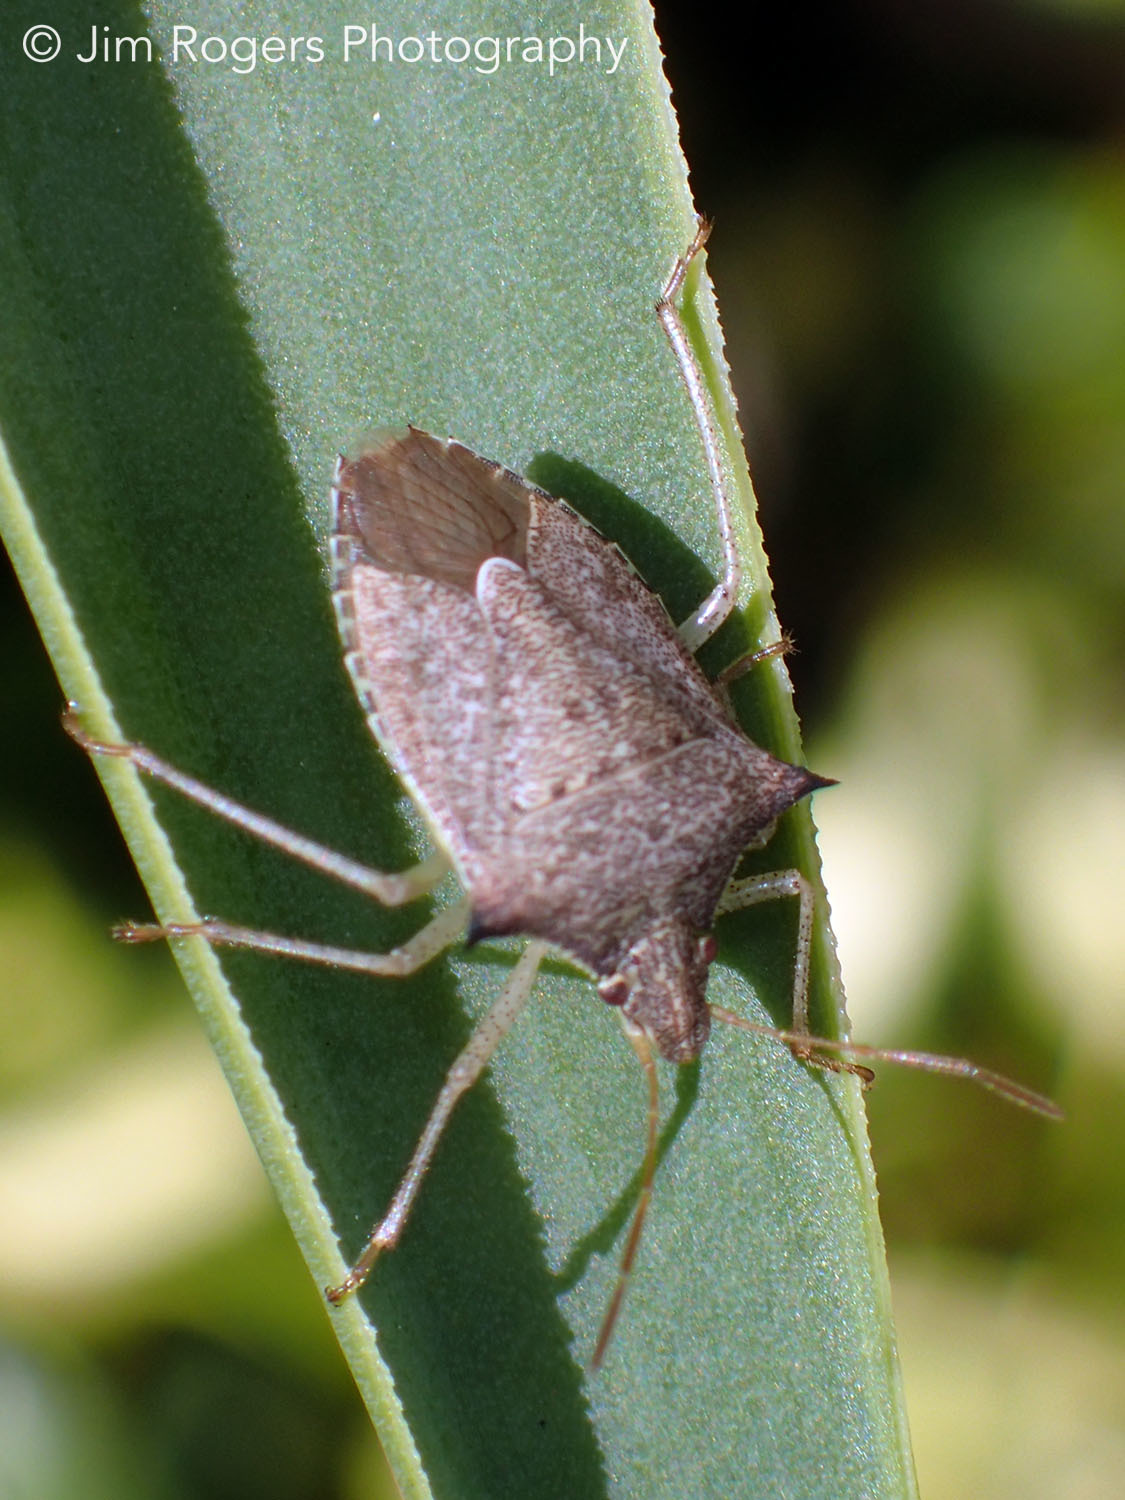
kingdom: Animalia
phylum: Arthropoda
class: Insecta
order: Hemiptera
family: Pentatomidae
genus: Euschistus
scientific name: Euschistus servus
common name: Brown stink bug
